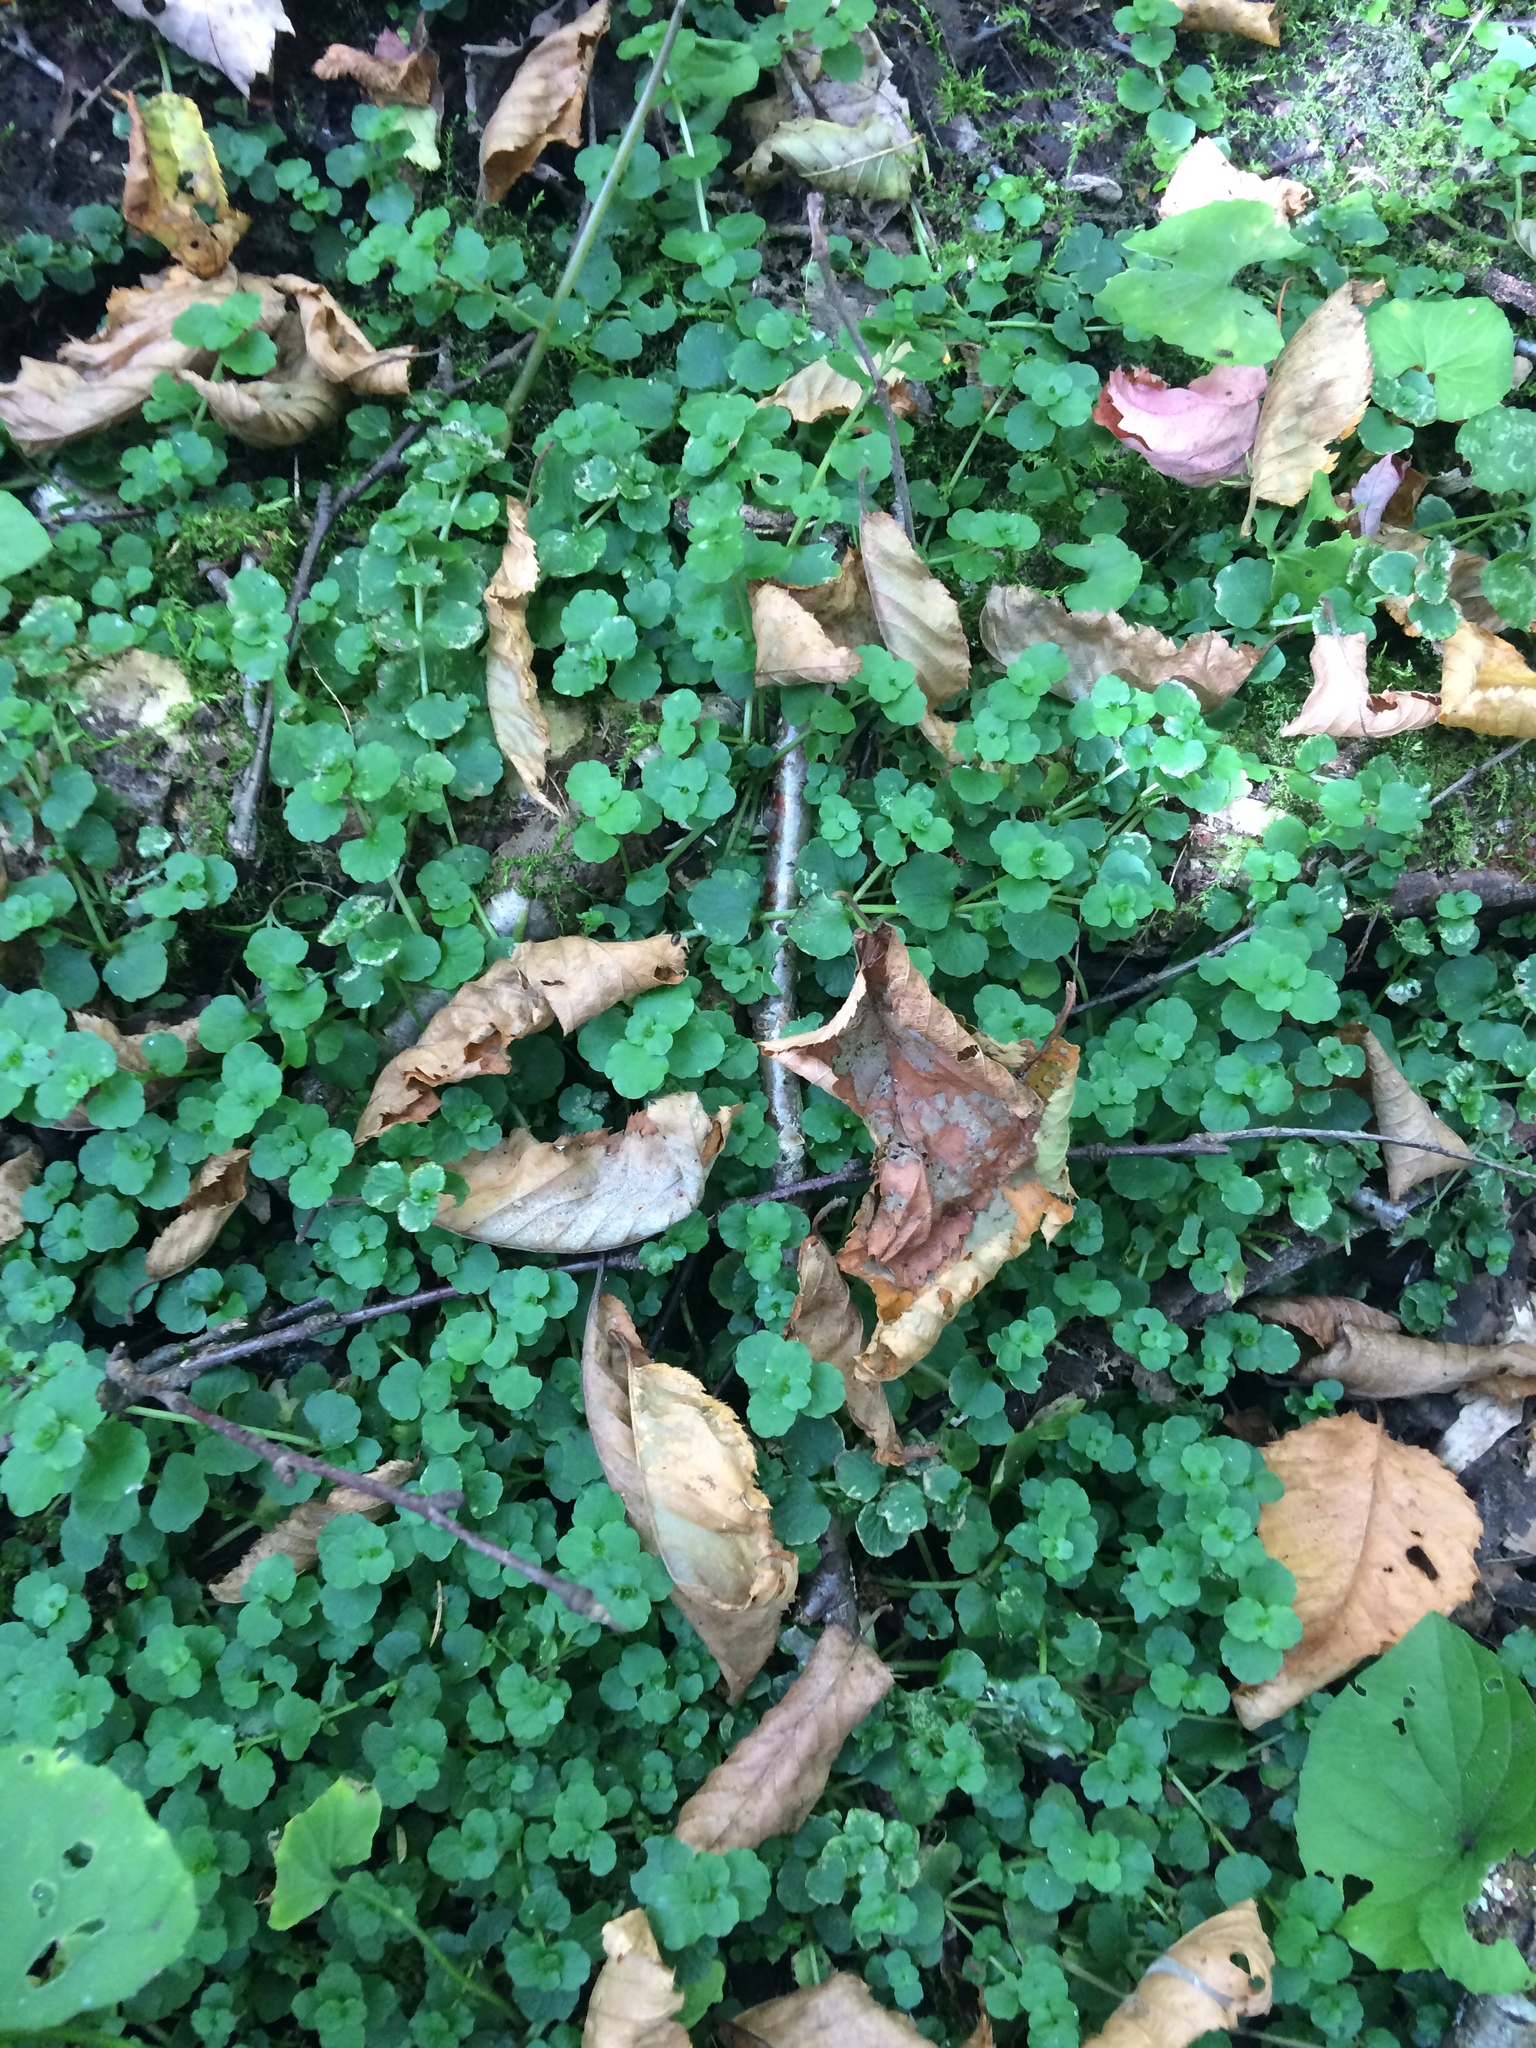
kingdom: Plantae
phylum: Tracheophyta
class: Magnoliopsida
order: Saxifragales
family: Saxifragaceae
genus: Chrysosplenium
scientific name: Chrysosplenium americanum
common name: American golden-saxifrage
